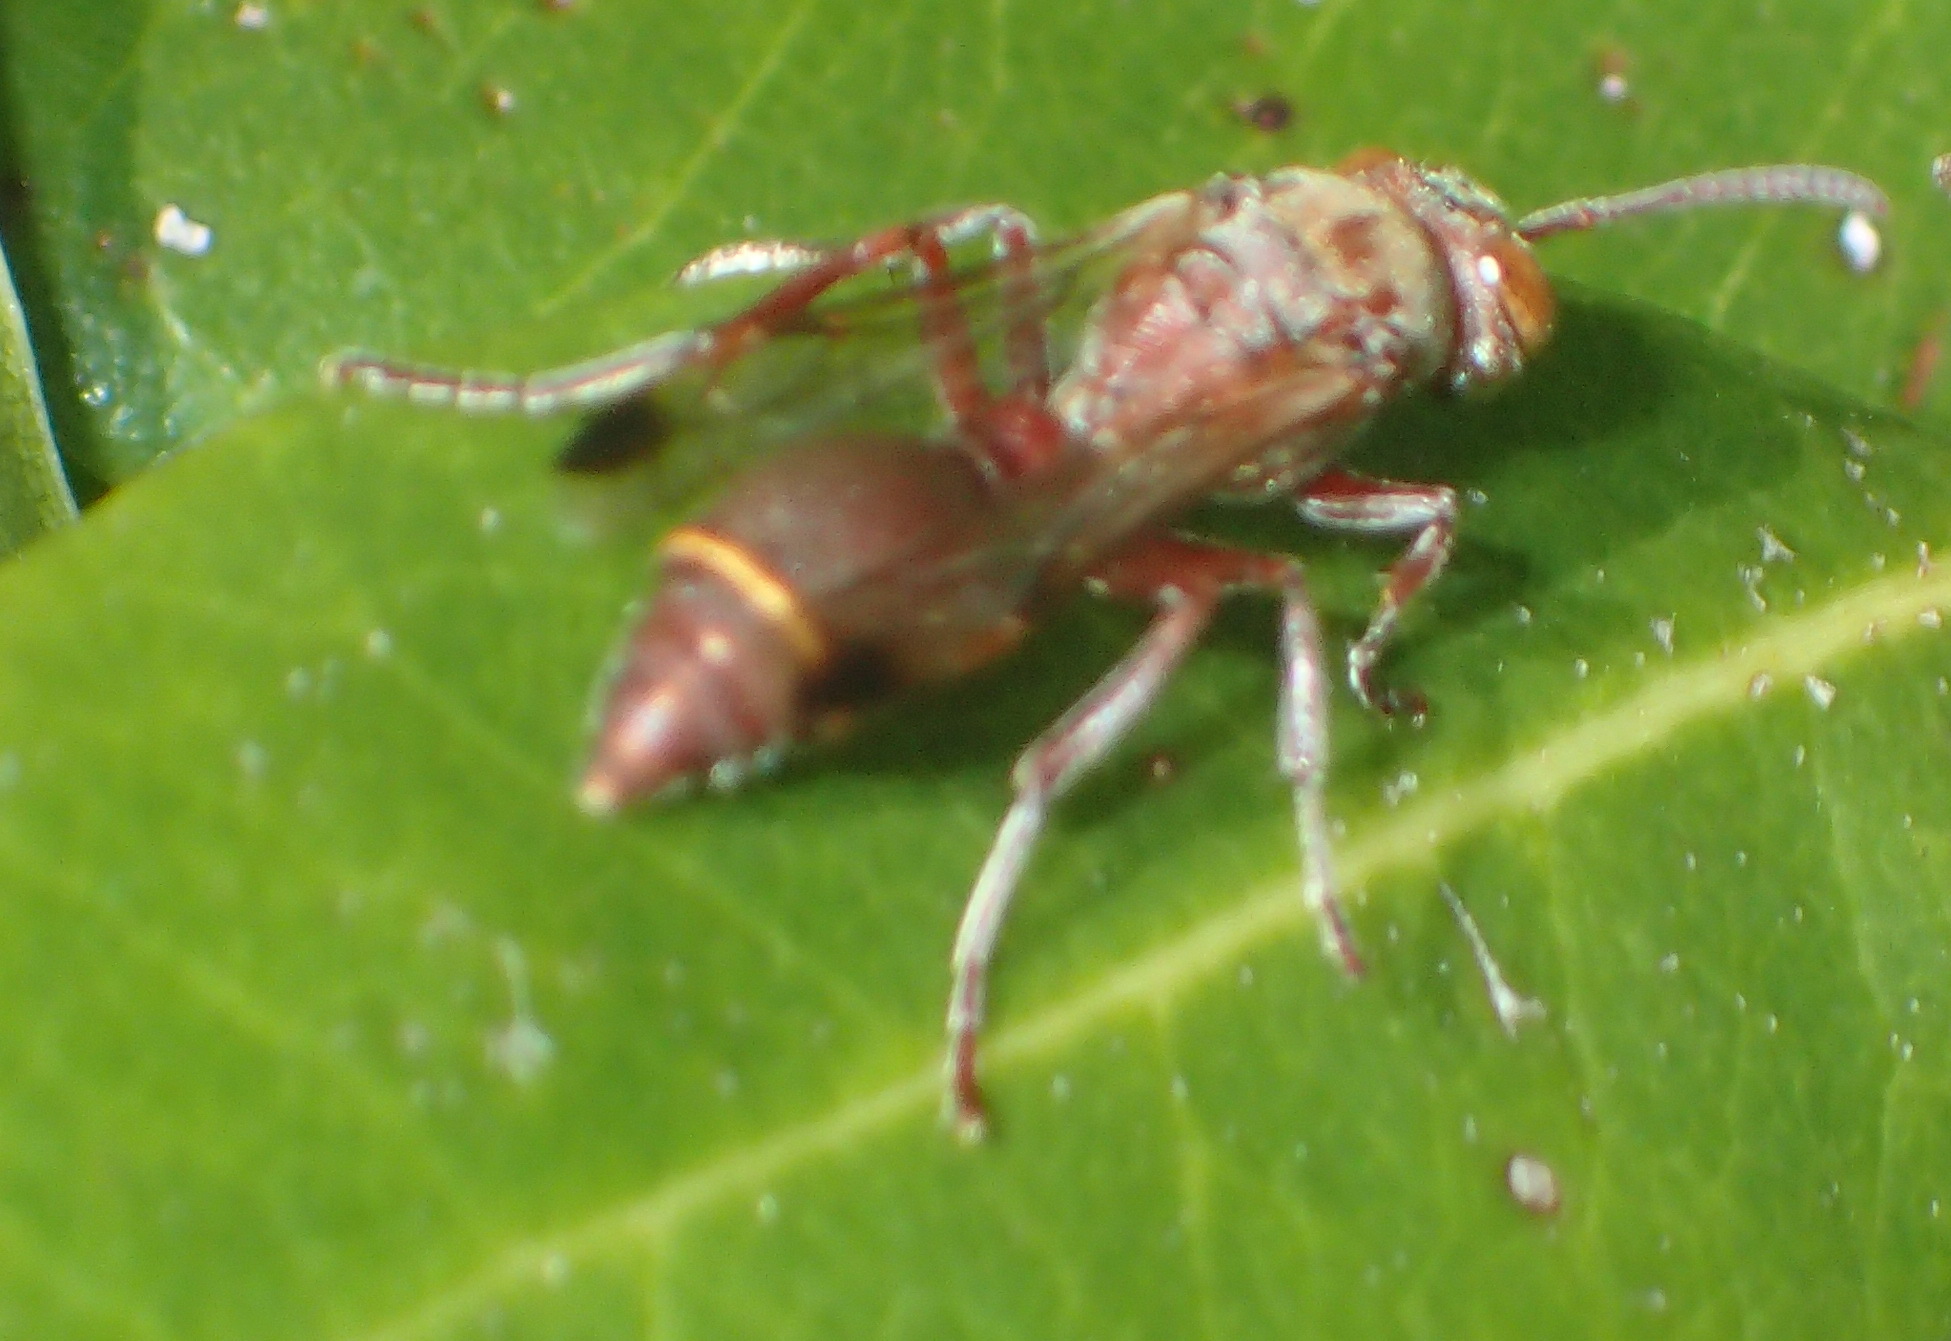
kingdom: Animalia
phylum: Arthropoda
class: Insecta
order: Hymenoptera
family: Vespidae
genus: Ropalidia
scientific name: Ropalidia distigma
